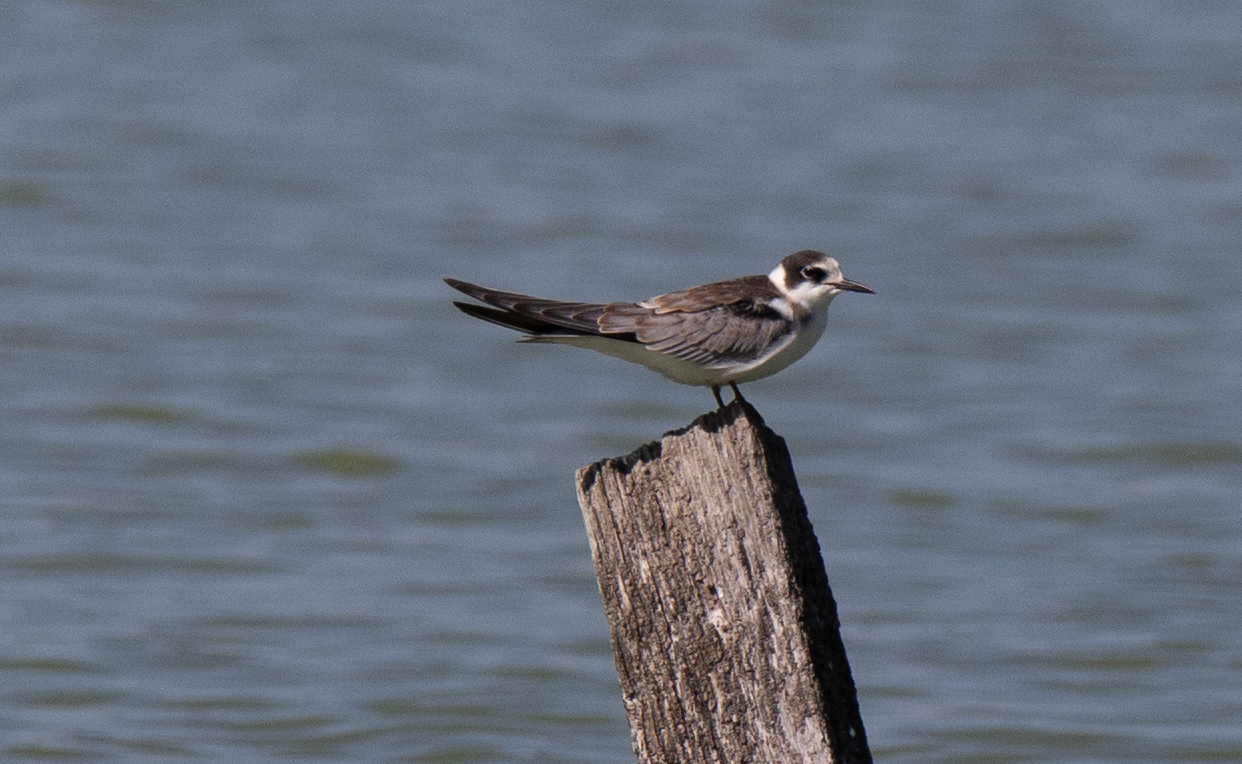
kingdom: Animalia
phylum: Chordata
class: Aves
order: Charadriiformes
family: Laridae
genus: Chlidonias
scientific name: Chlidonias niger
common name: Black tern
